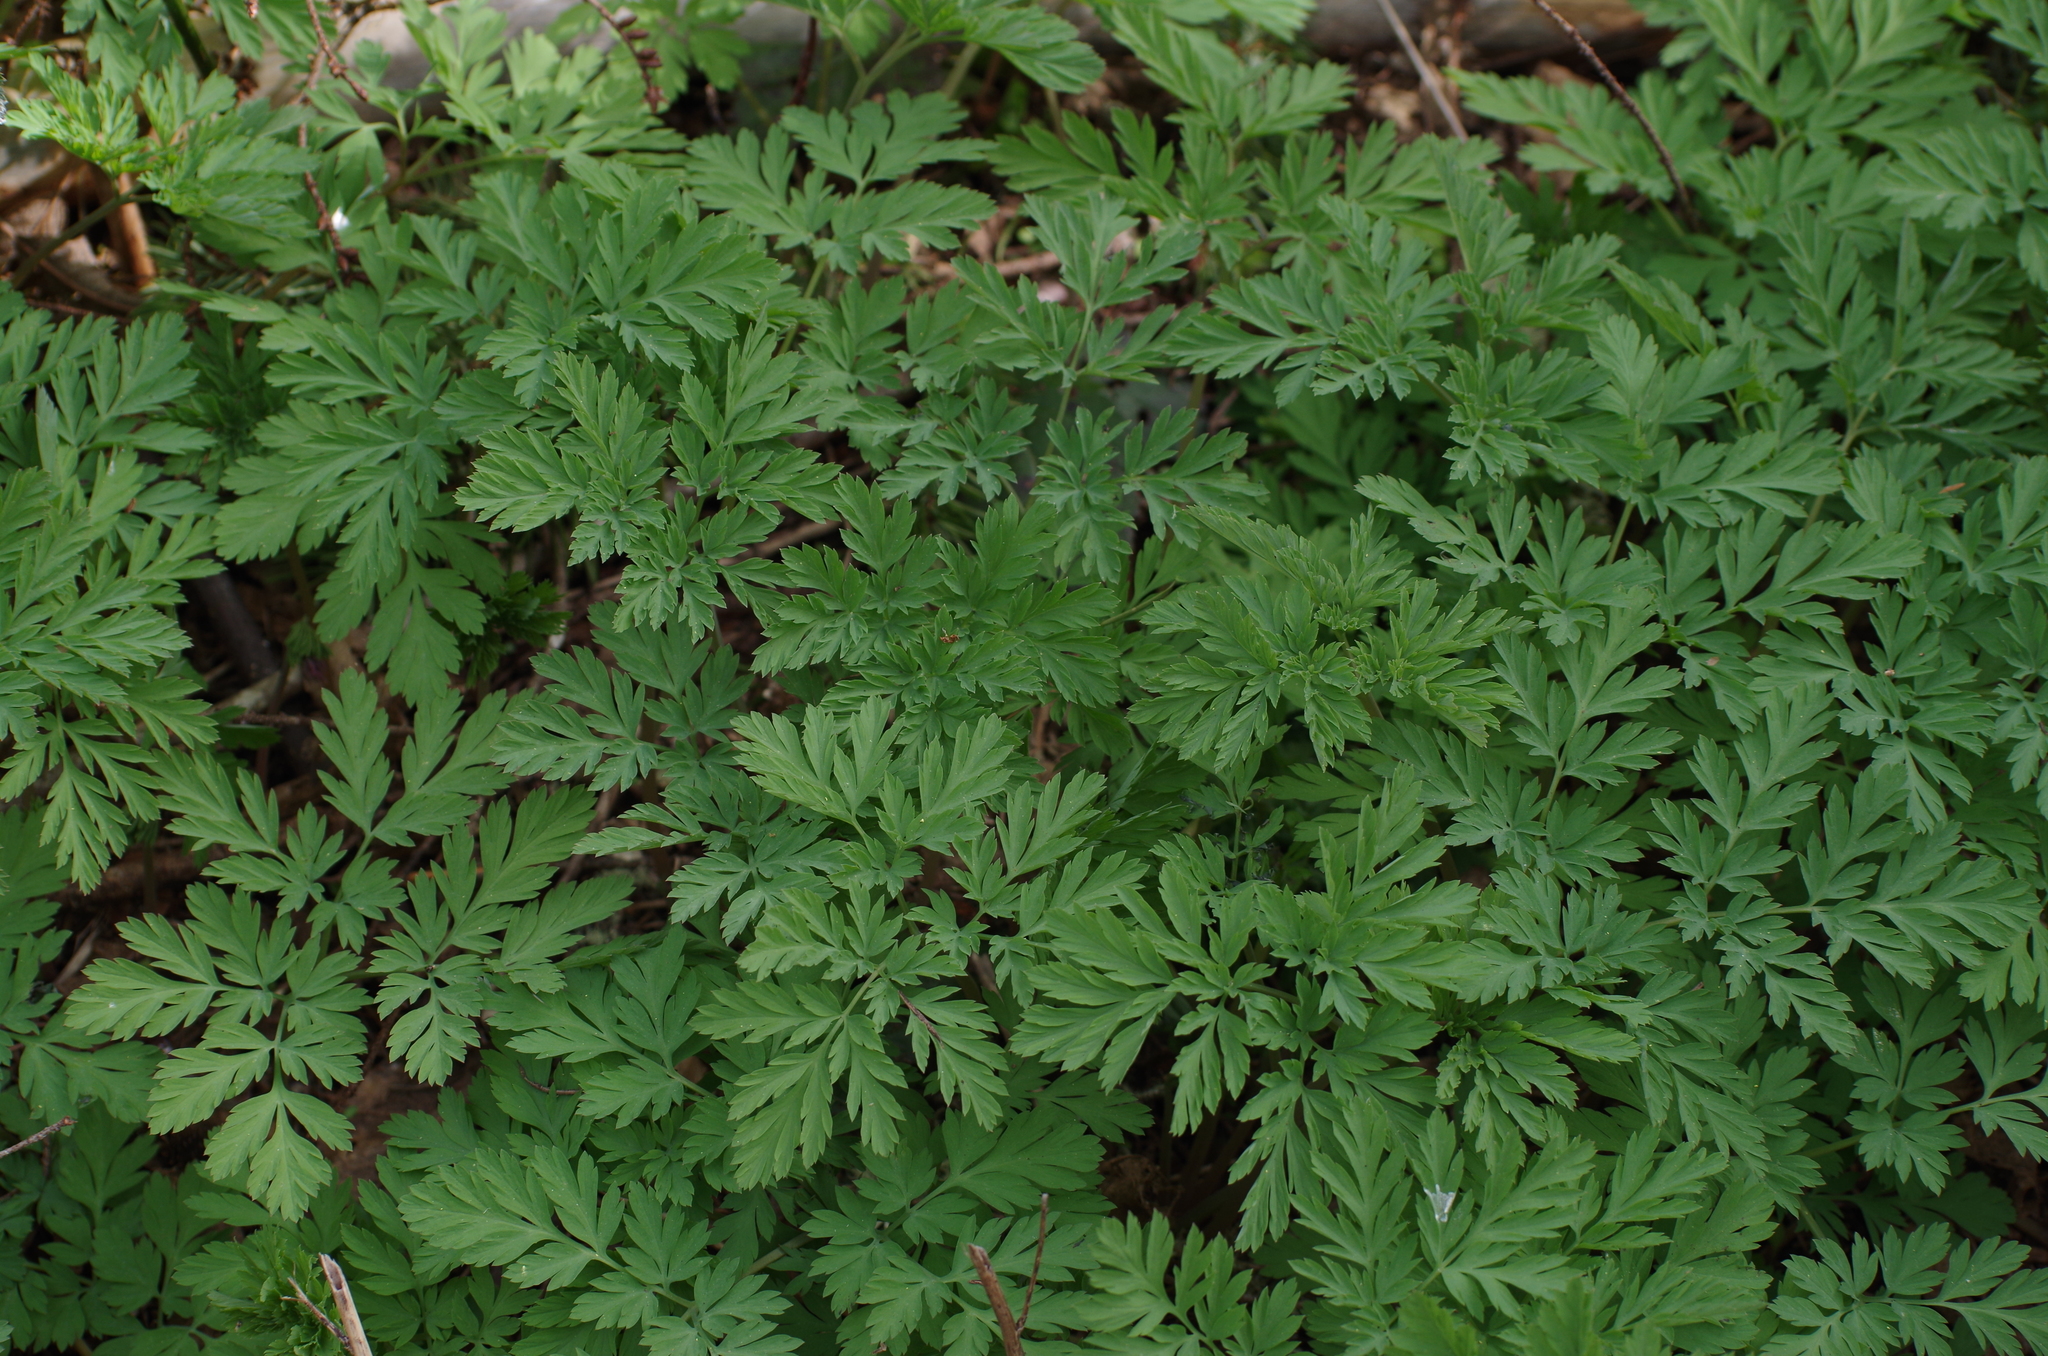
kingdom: Plantae
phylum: Tracheophyta
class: Magnoliopsida
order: Ranunculales
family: Papaveraceae
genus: Dicentra
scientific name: Dicentra formosa
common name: Bleeding-heart
